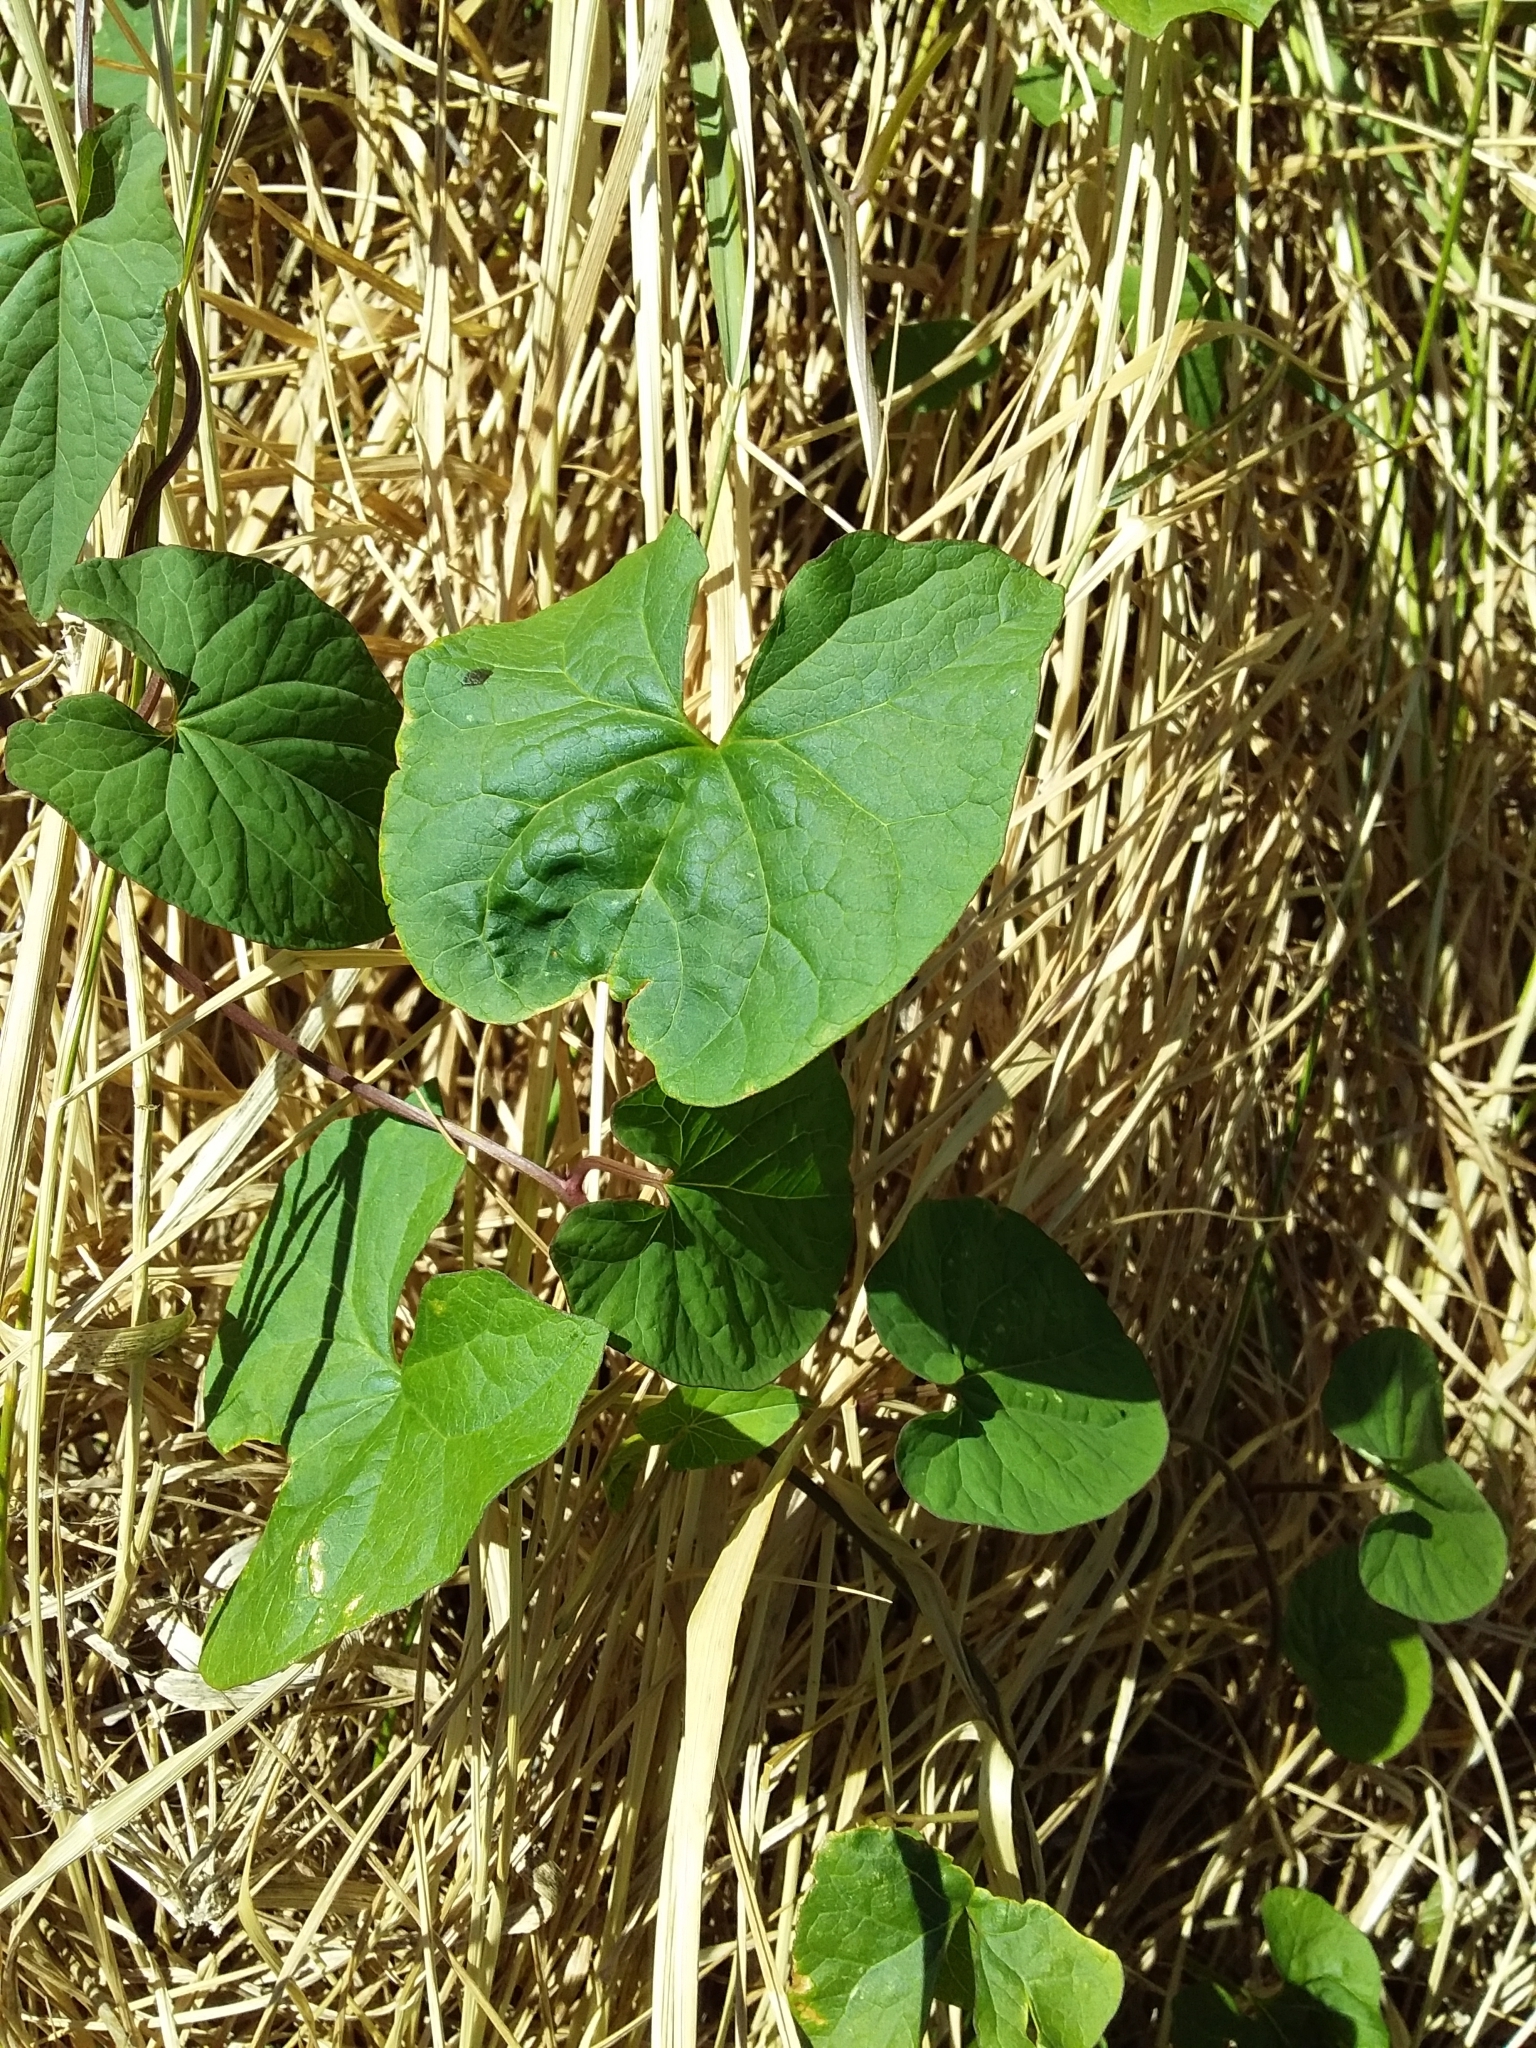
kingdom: Plantae
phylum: Tracheophyta
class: Magnoliopsida
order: Solanales
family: Convolvulaceae
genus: Calystegia
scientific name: Calystegia silvatica
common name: Large bindweed
